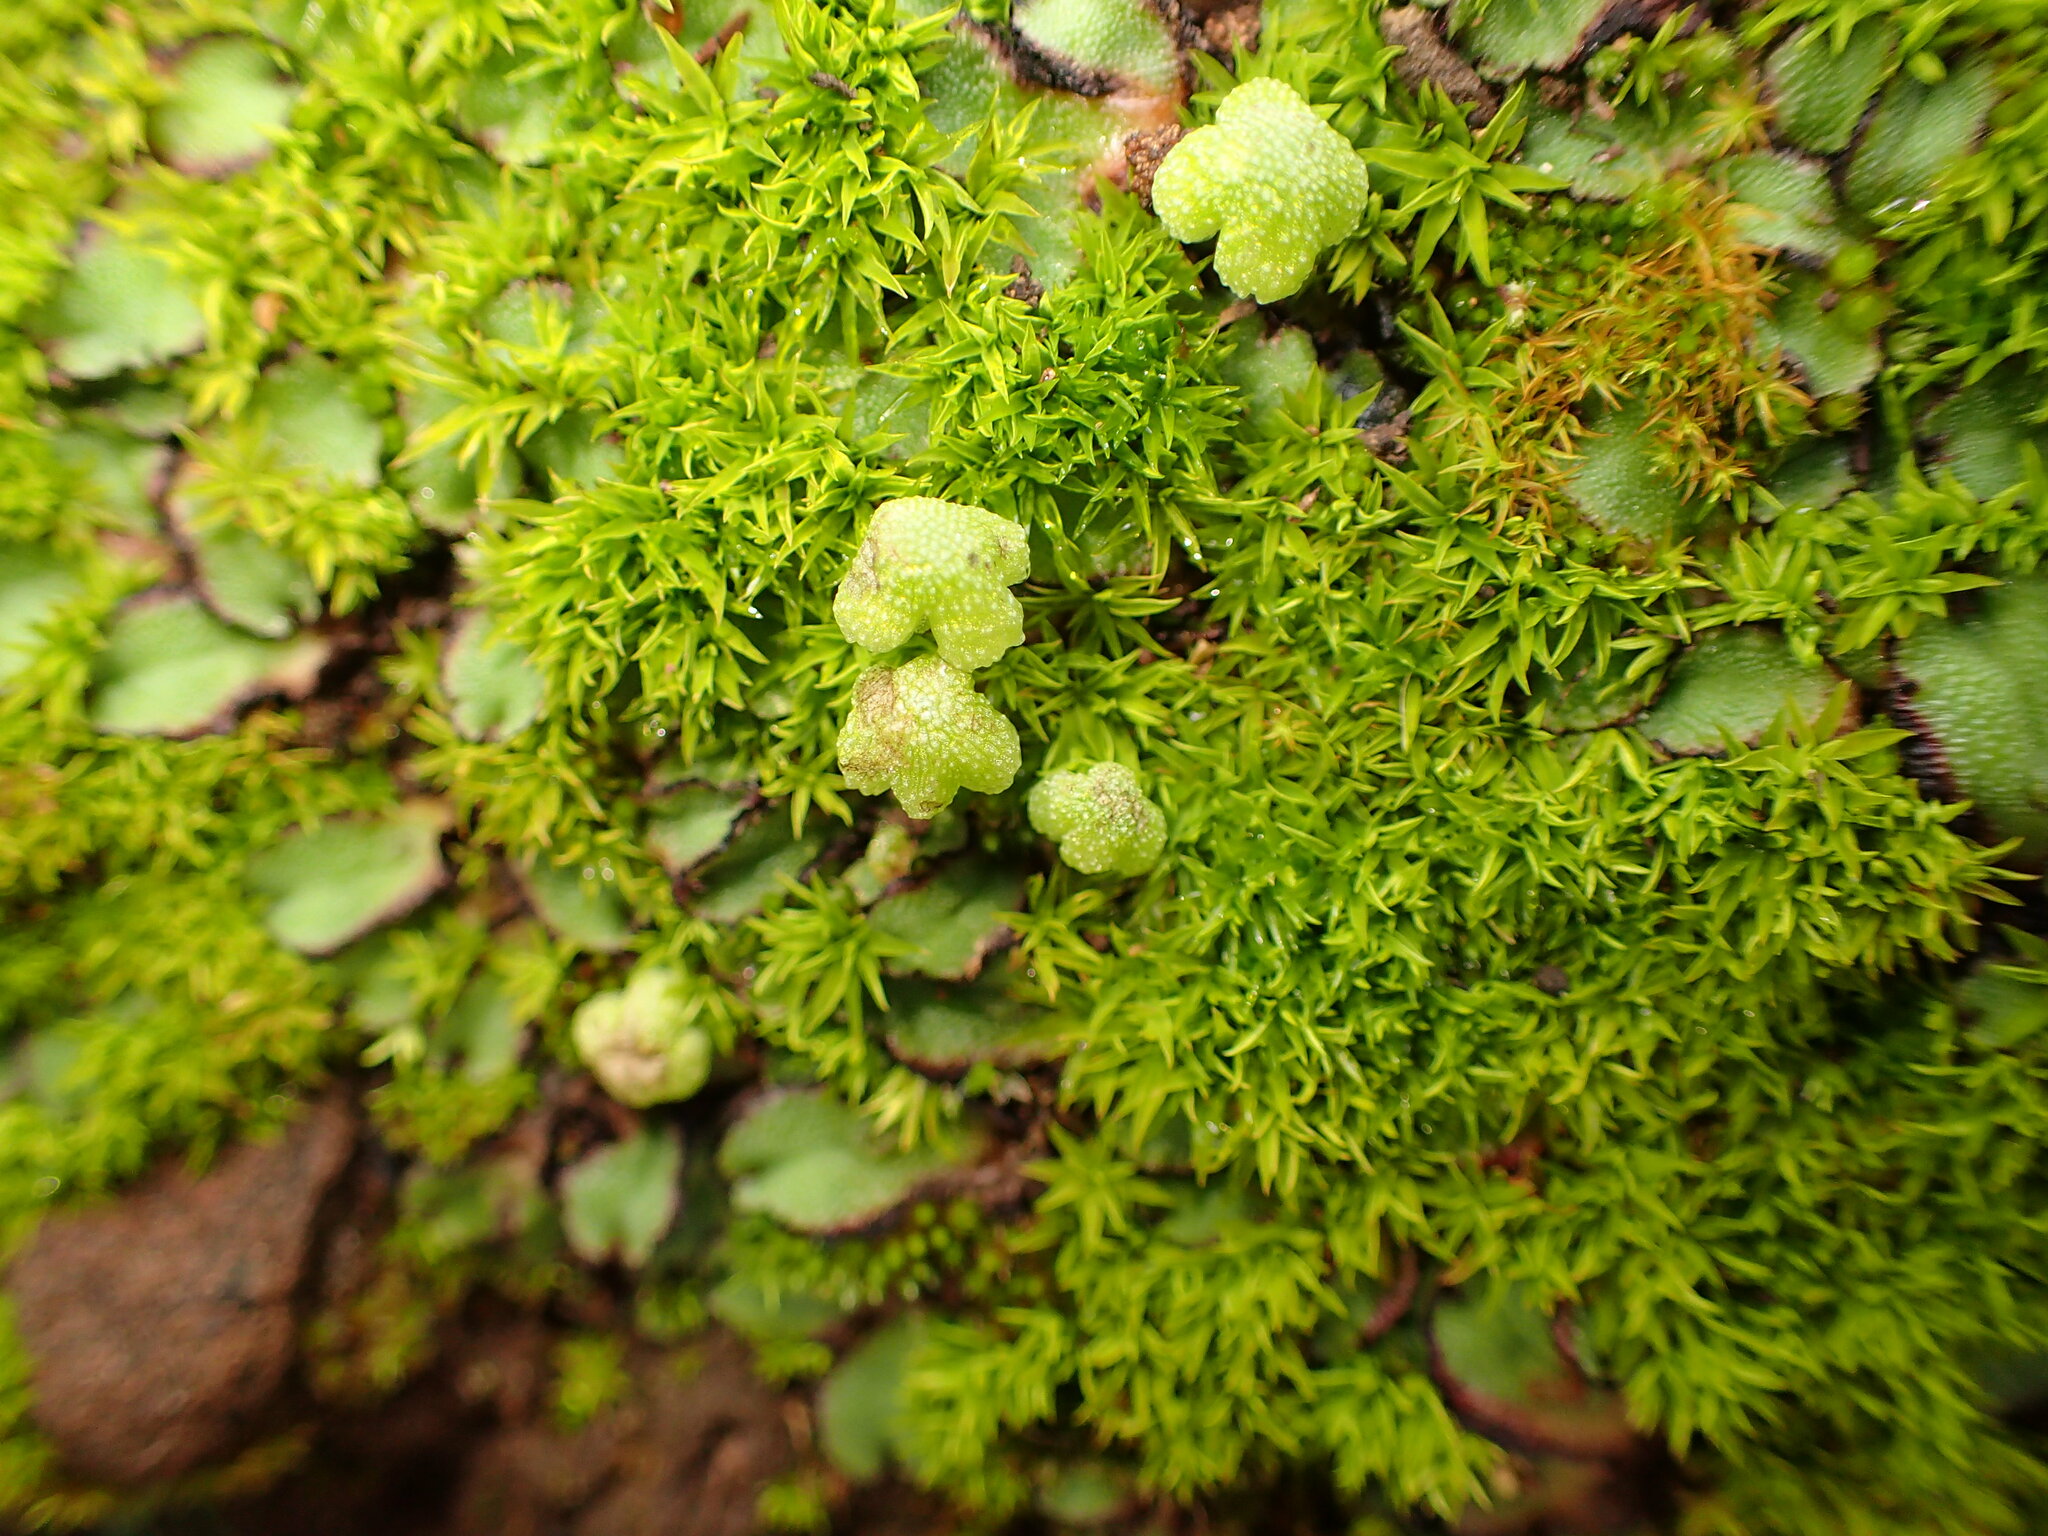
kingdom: Plantae
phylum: Marchantiophyta
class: Marchantiopsida
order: Marchantiales
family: Aytoniaceae
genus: Asterella
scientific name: Asterella californica
